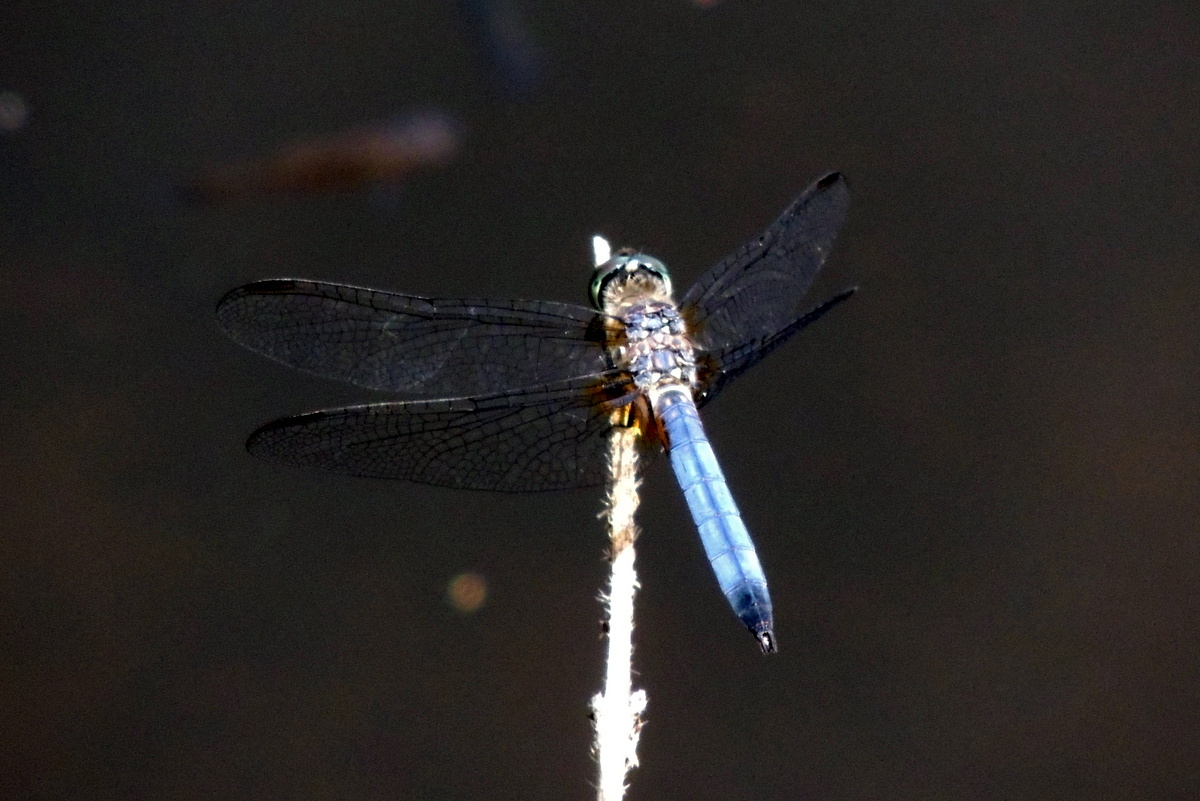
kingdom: Animalia
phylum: Arthropoda
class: Insecta
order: Odonata
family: Libellulidae
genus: Pachydiplax
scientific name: Pachydiplax longipennis
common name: Blue dasher
